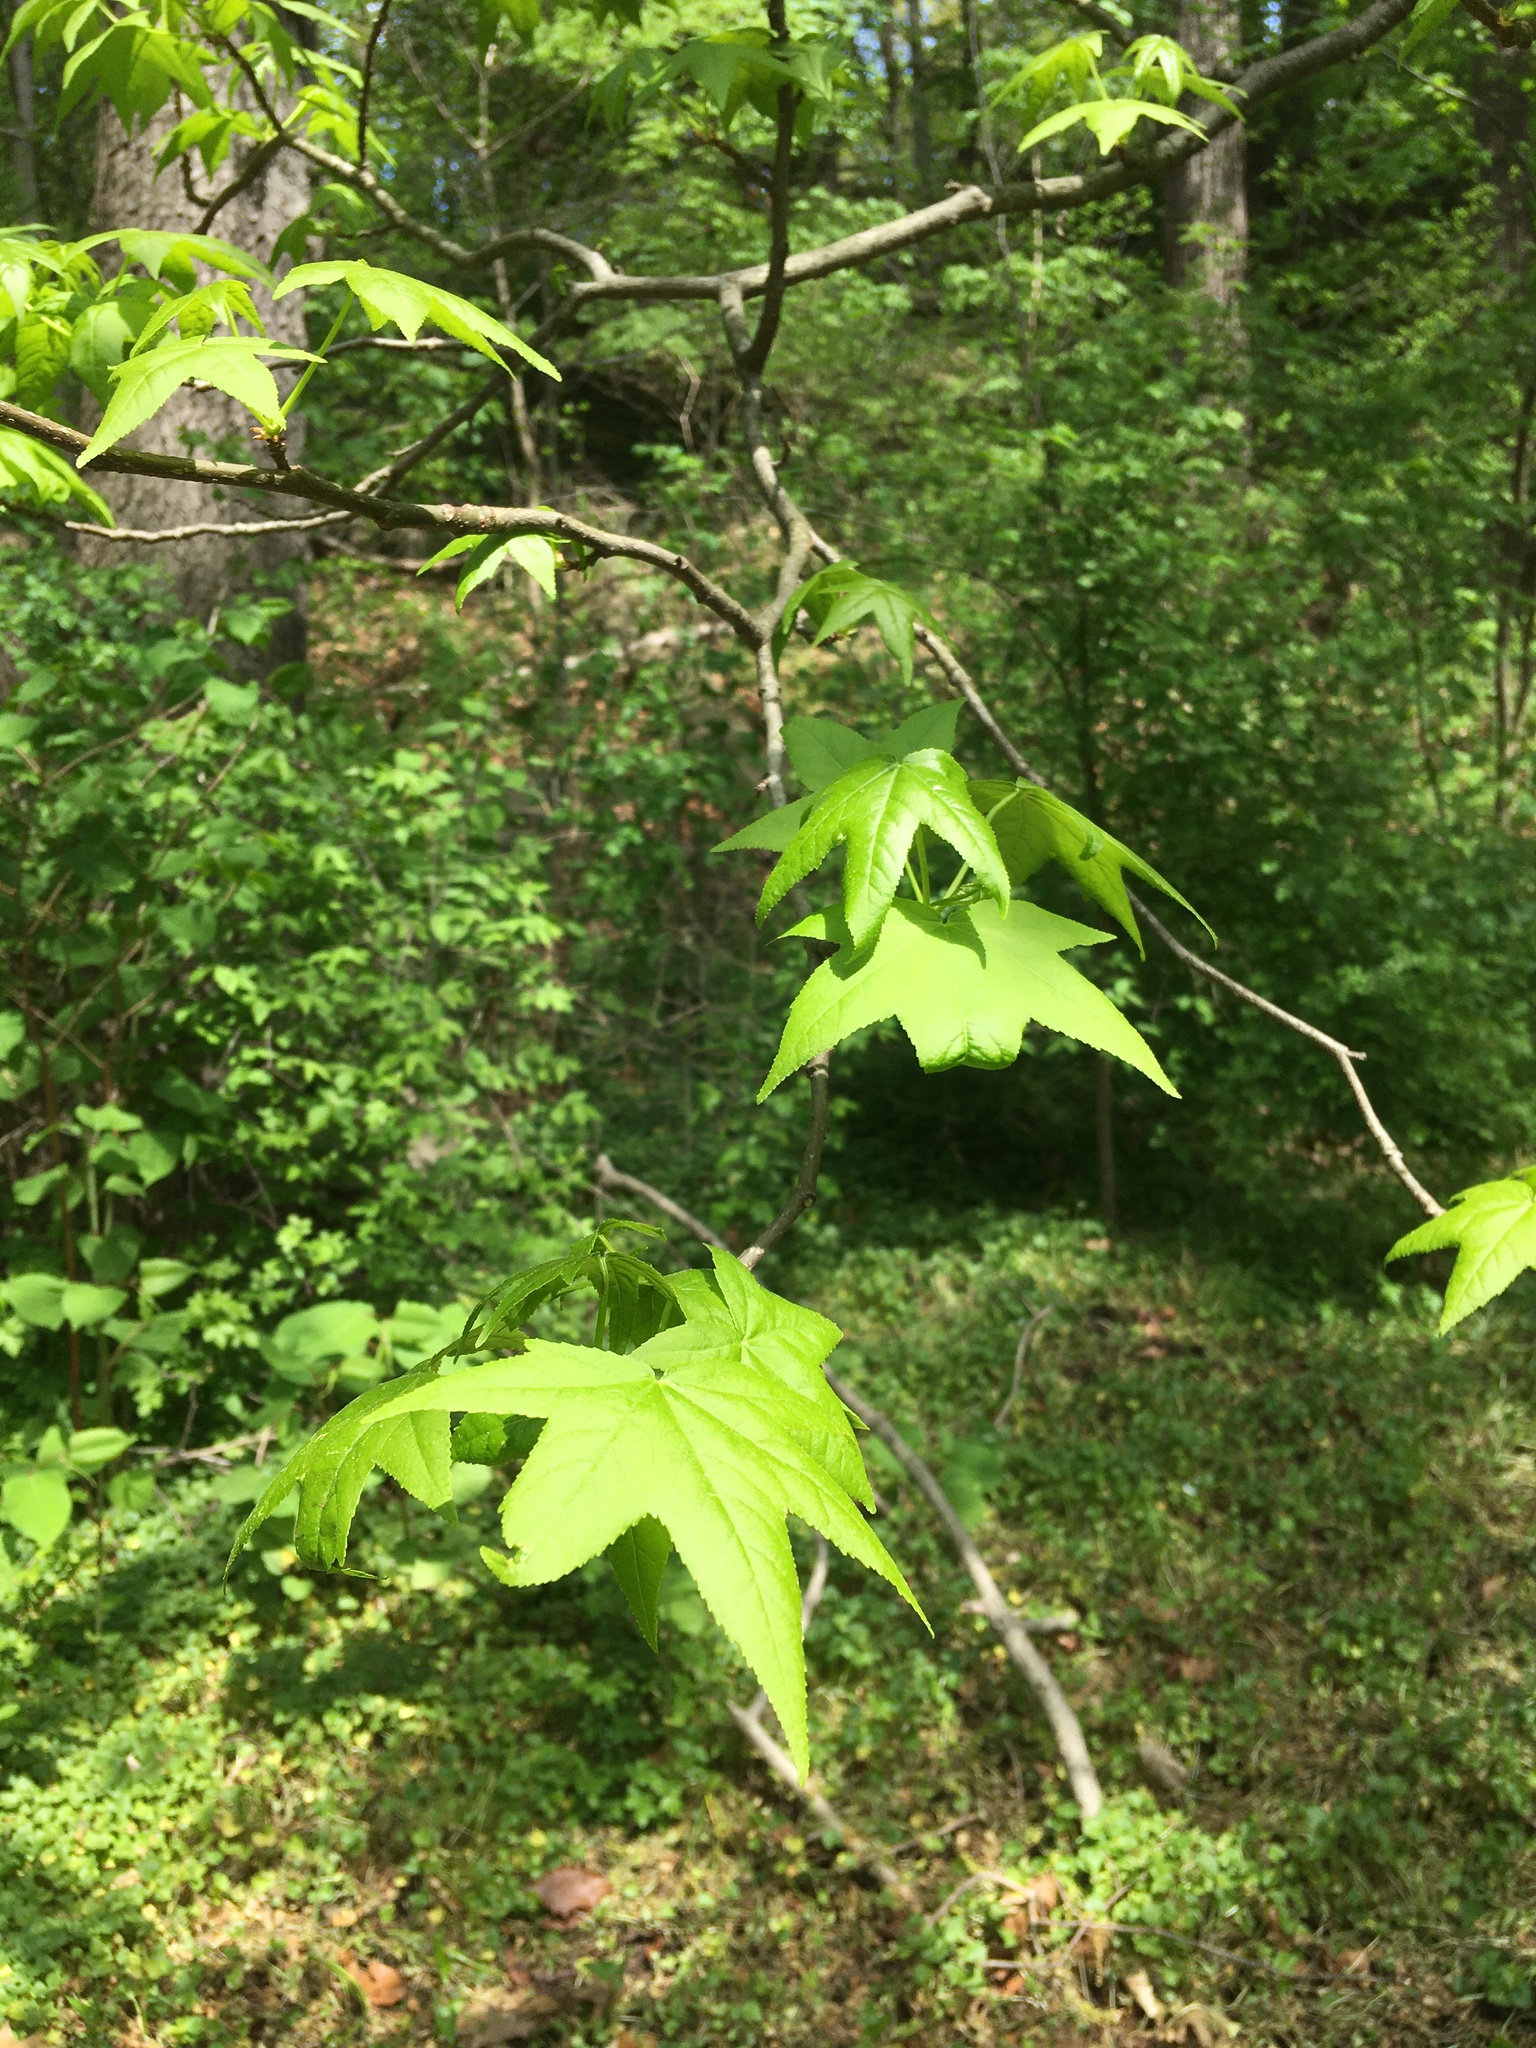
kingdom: Plantae
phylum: Tracheophyta
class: Magnoliopsida
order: Saxifragales
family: Altingiaceae
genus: Liquidambar
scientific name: Liquidambar styraciflua
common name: Sweet gum
